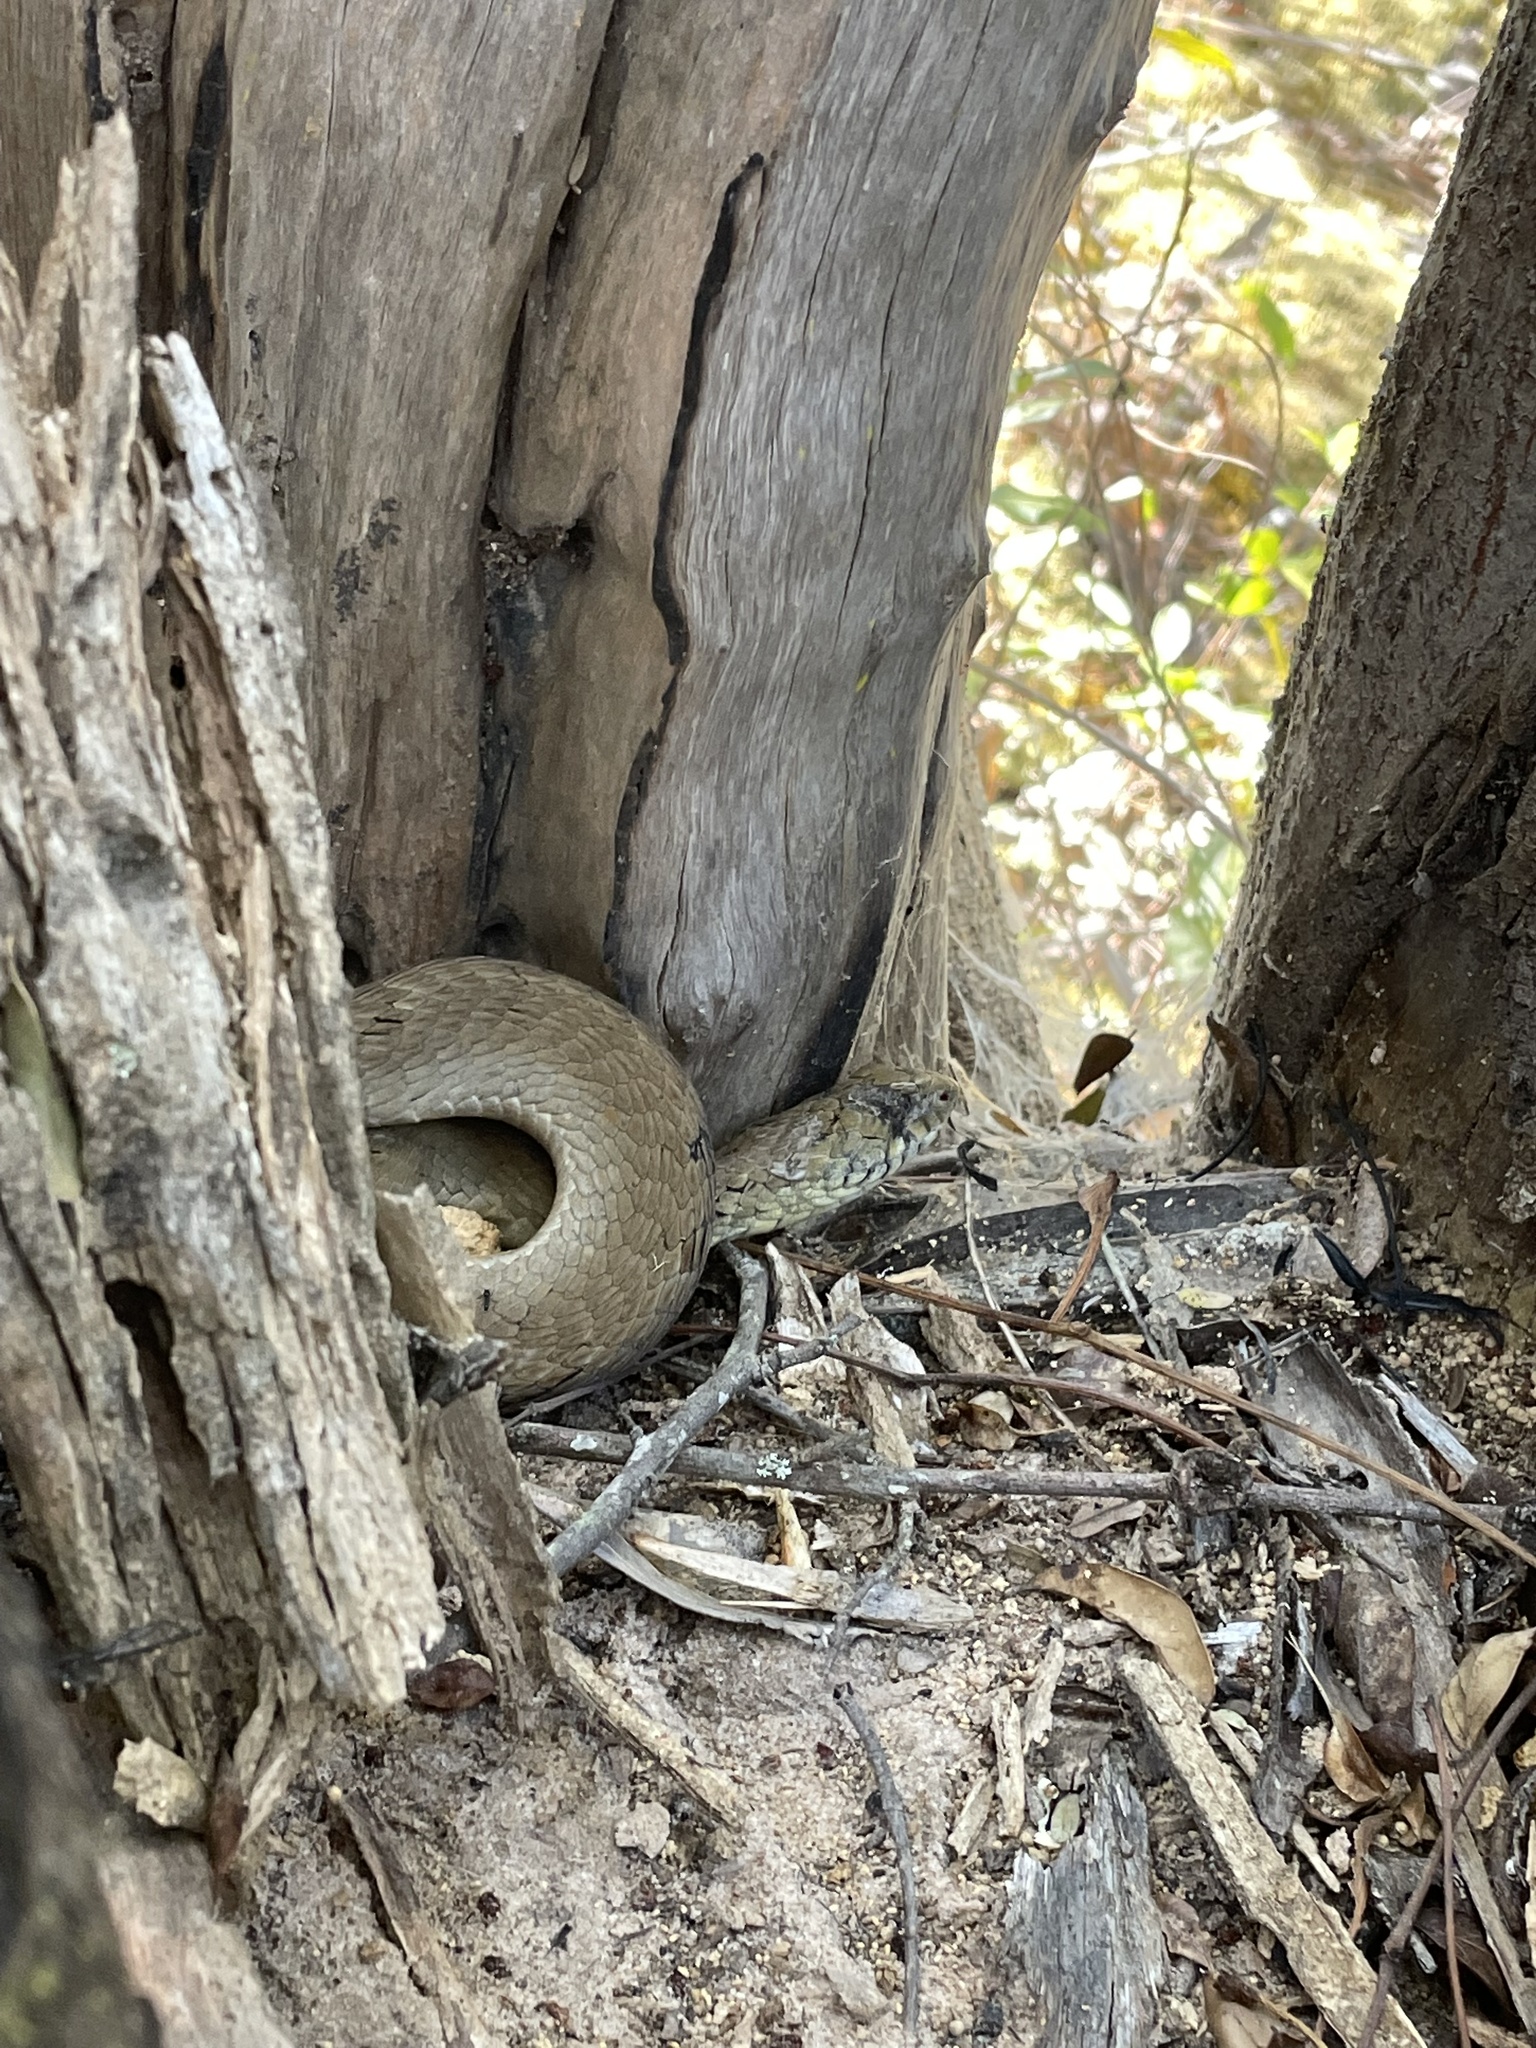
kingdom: Animalia
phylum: Chordata
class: Squamata
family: Viperidae
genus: Causus
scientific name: Causus maculatus
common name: Spotted night adder
